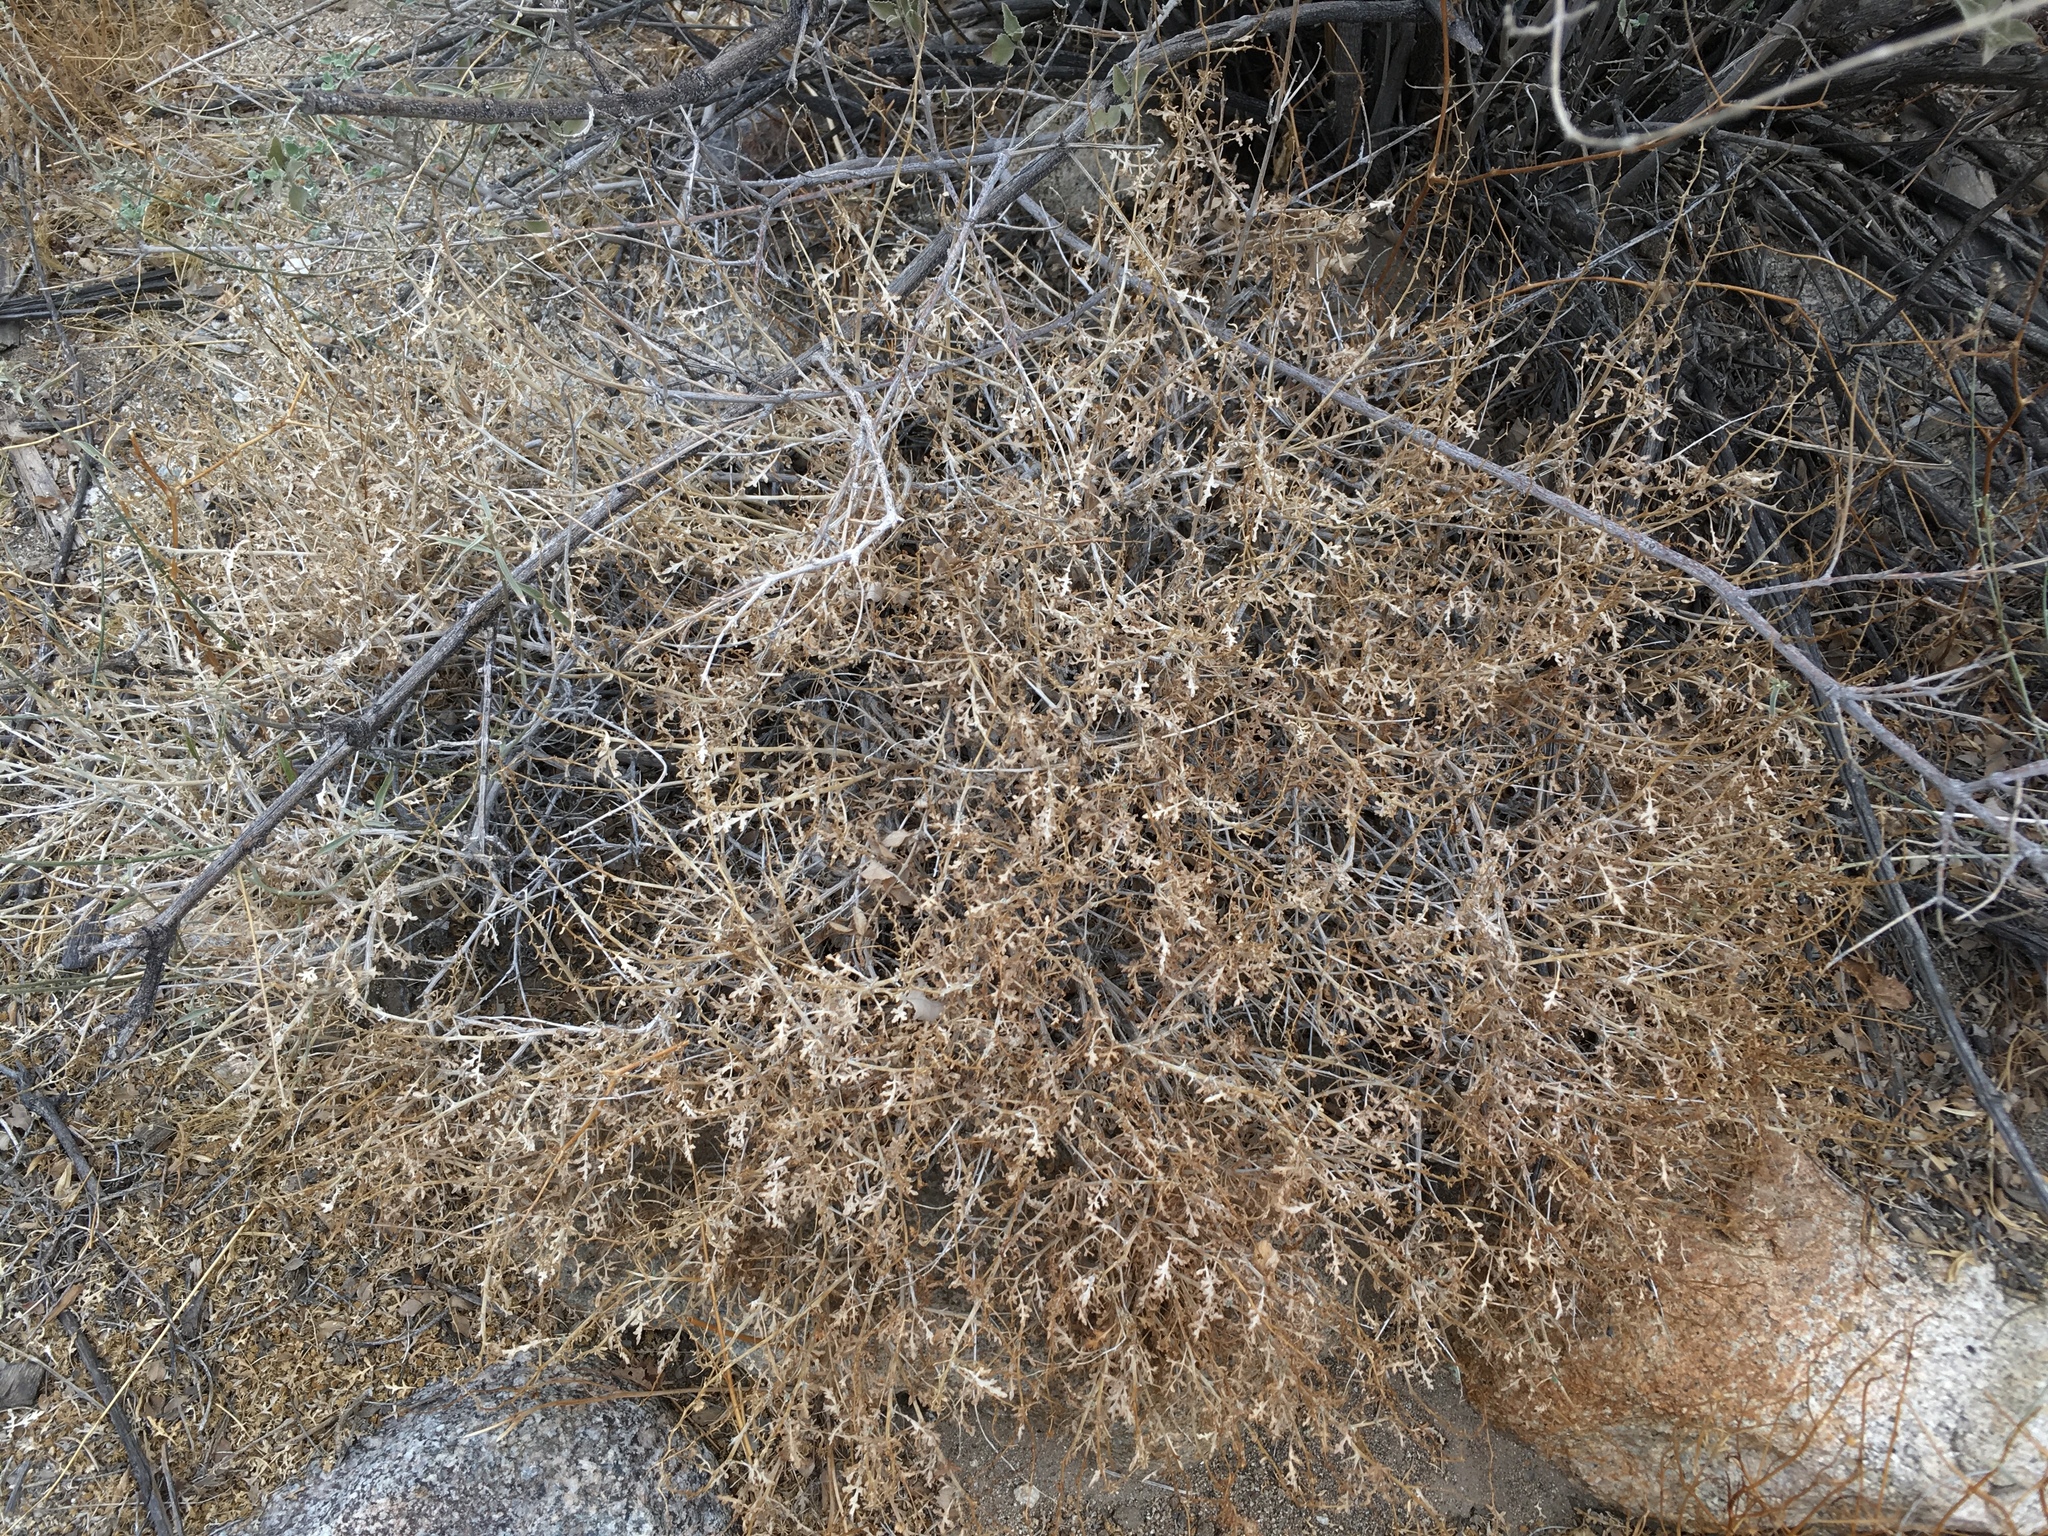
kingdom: Plantae
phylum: Tracheophyta
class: Magnoliopsida
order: Asterales
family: Asteraceae
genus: Ambrosia
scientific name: Ambrosia dumosa
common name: Bur-sage
